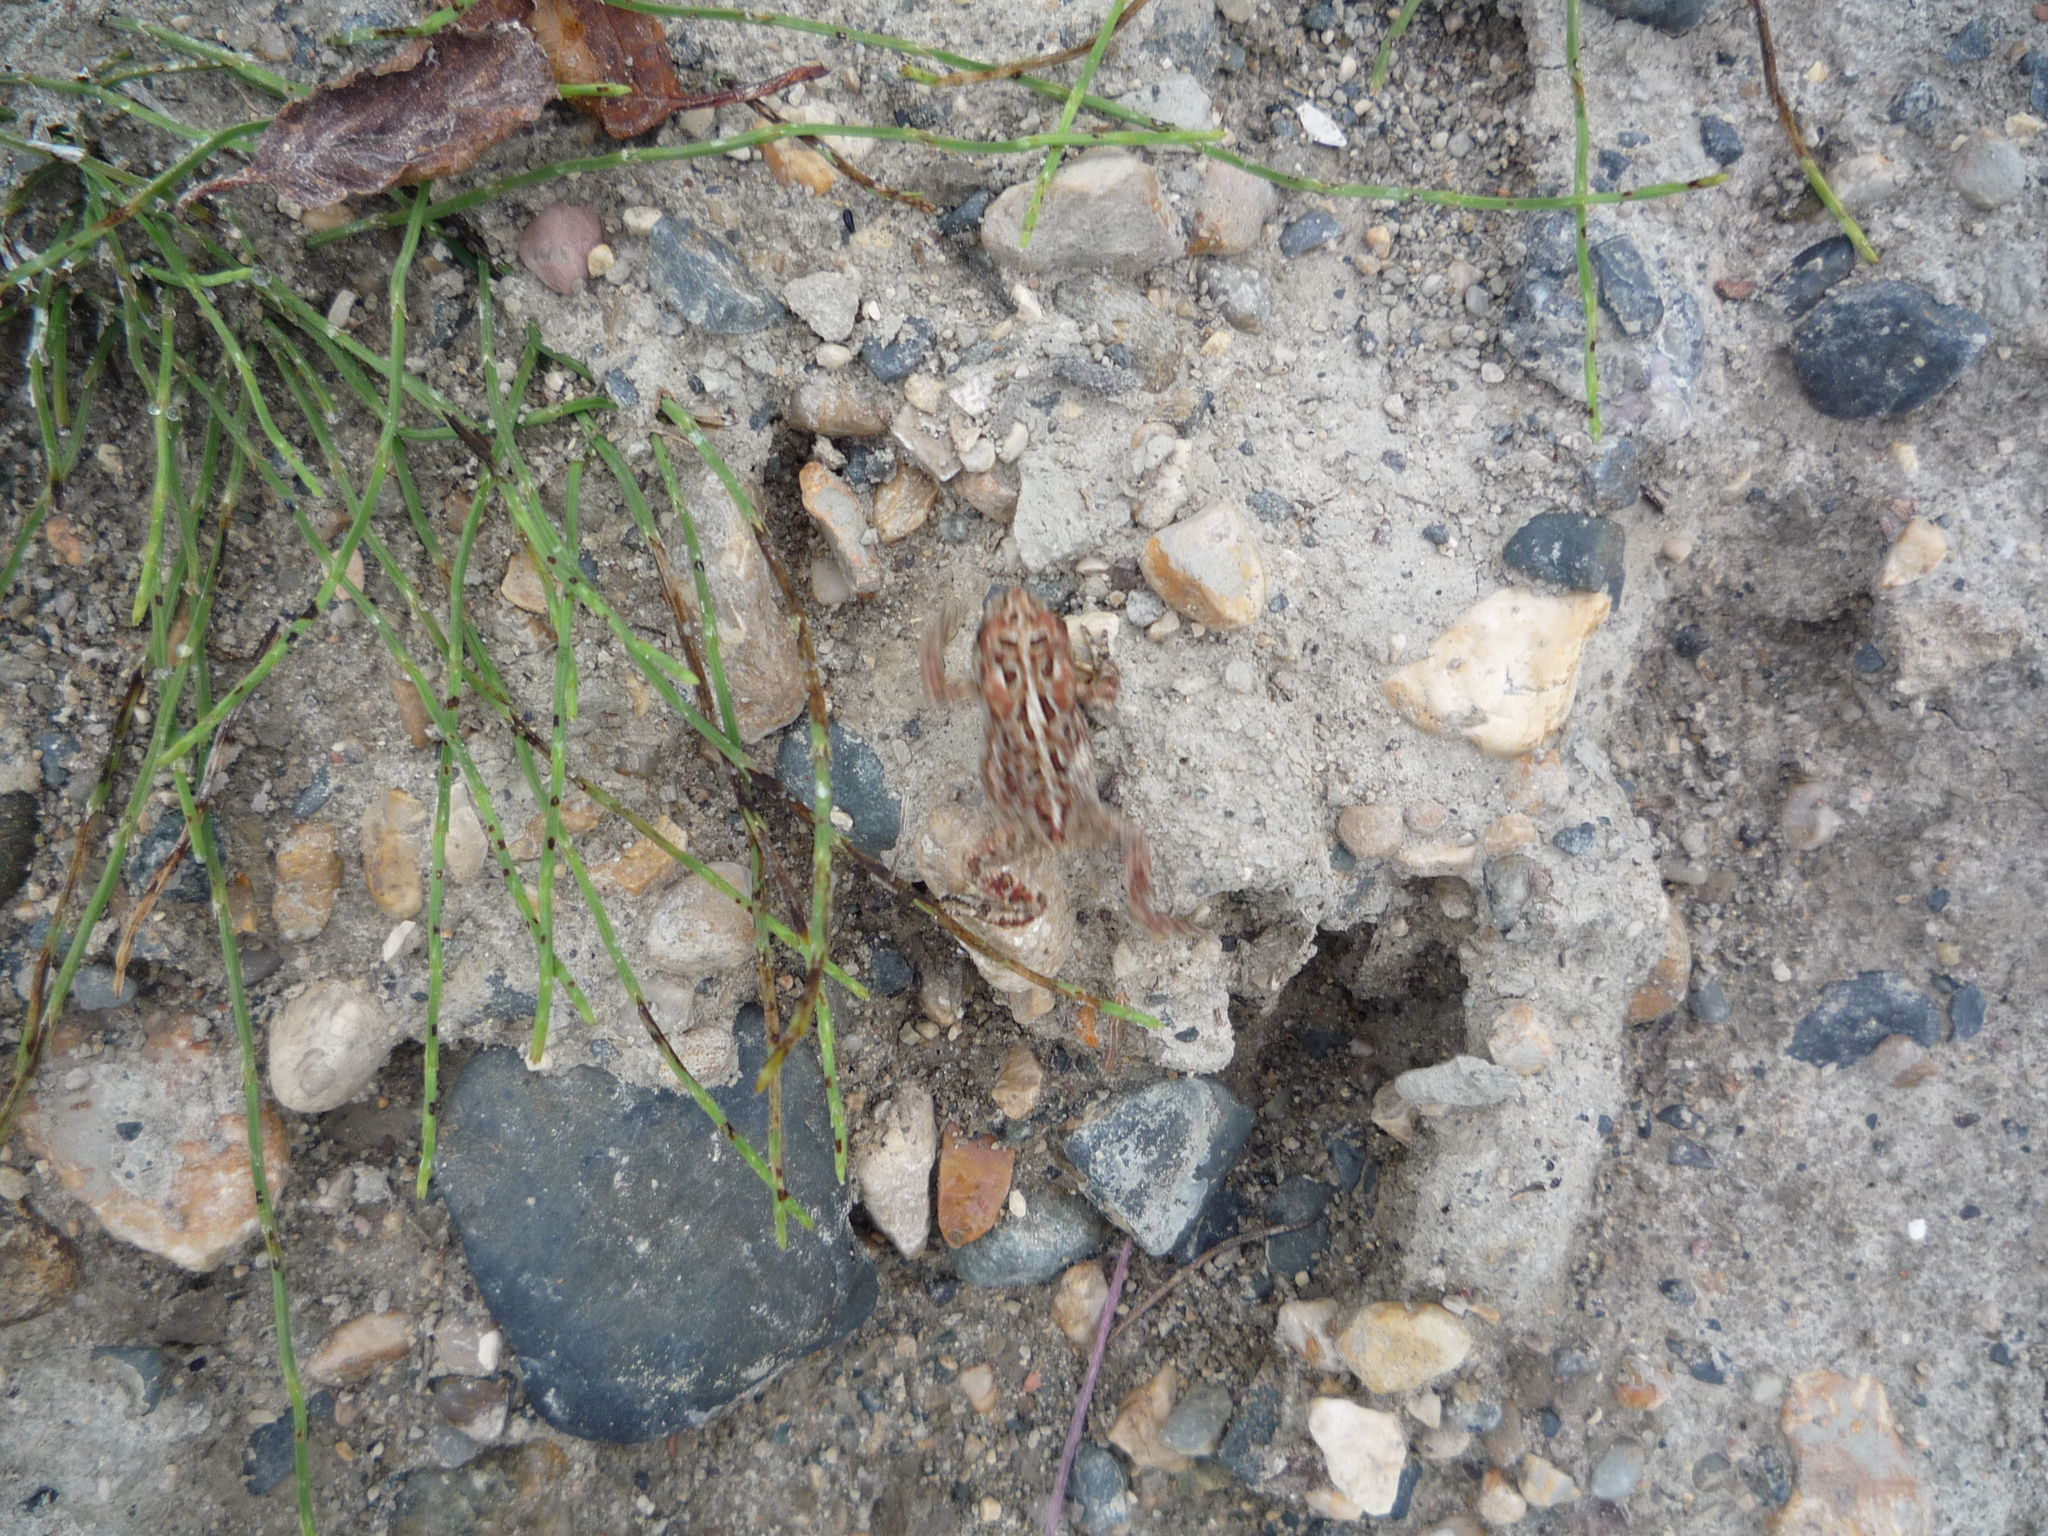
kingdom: Animalia
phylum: Chordata
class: Amphibia
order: Anura
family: Bufonidae
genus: Anaxyrus
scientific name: Anaxyrus americanus
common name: American toad
